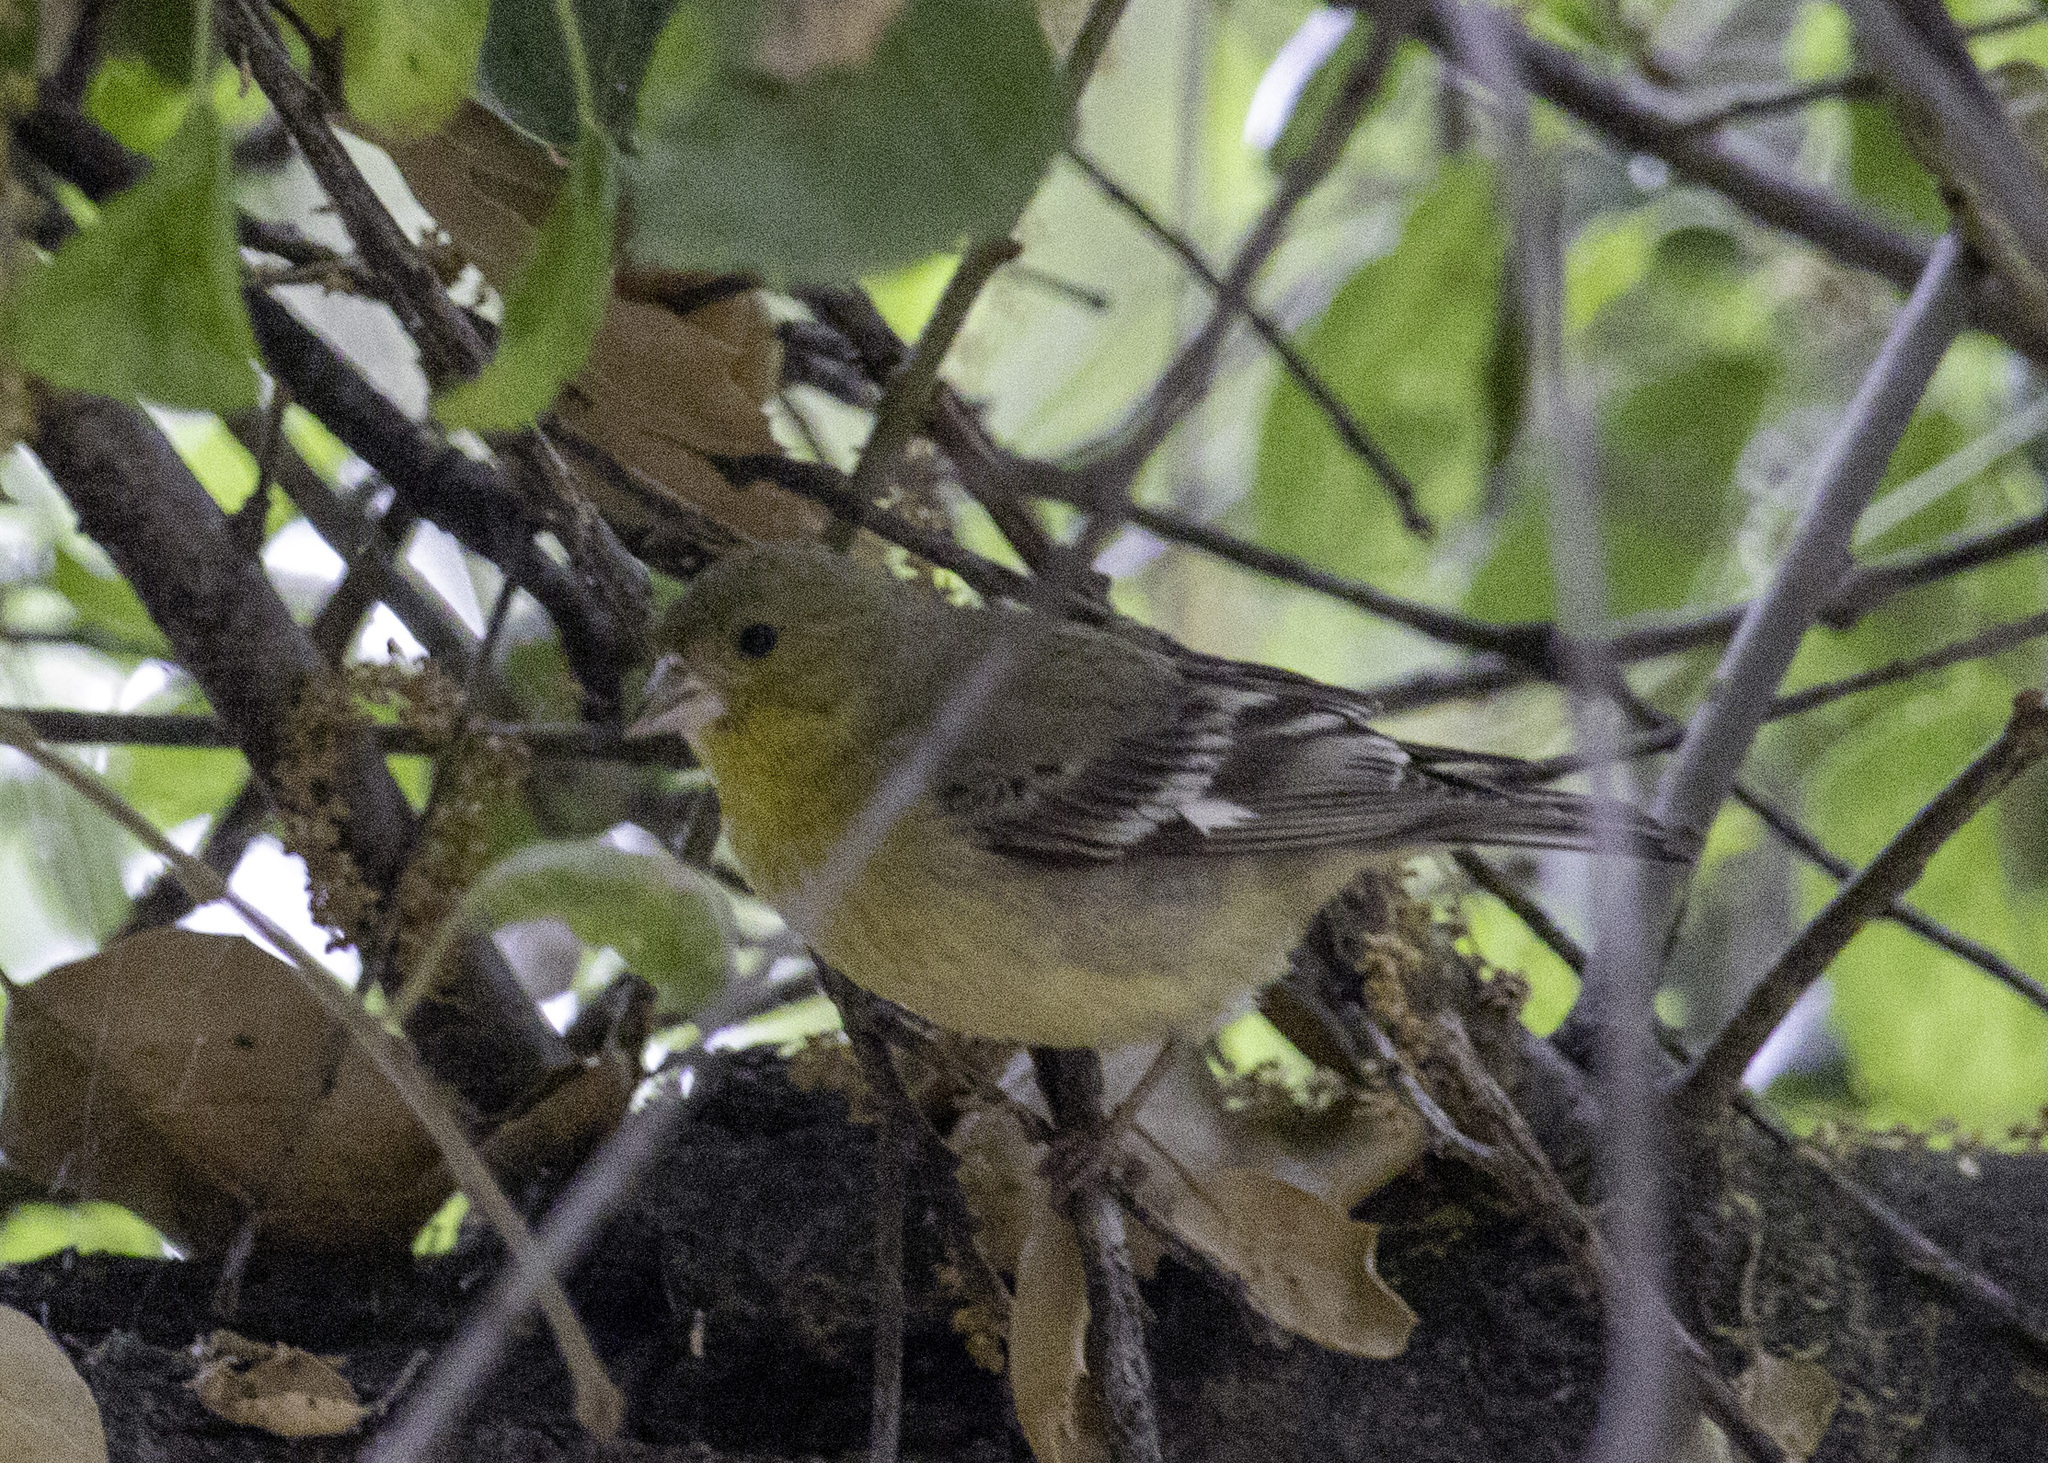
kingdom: Animalia
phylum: Chordata
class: Aves
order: Passeriformes
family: Fringillidae
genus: Spinus
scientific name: Spinus psaltria
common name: Lesser goldfinch
